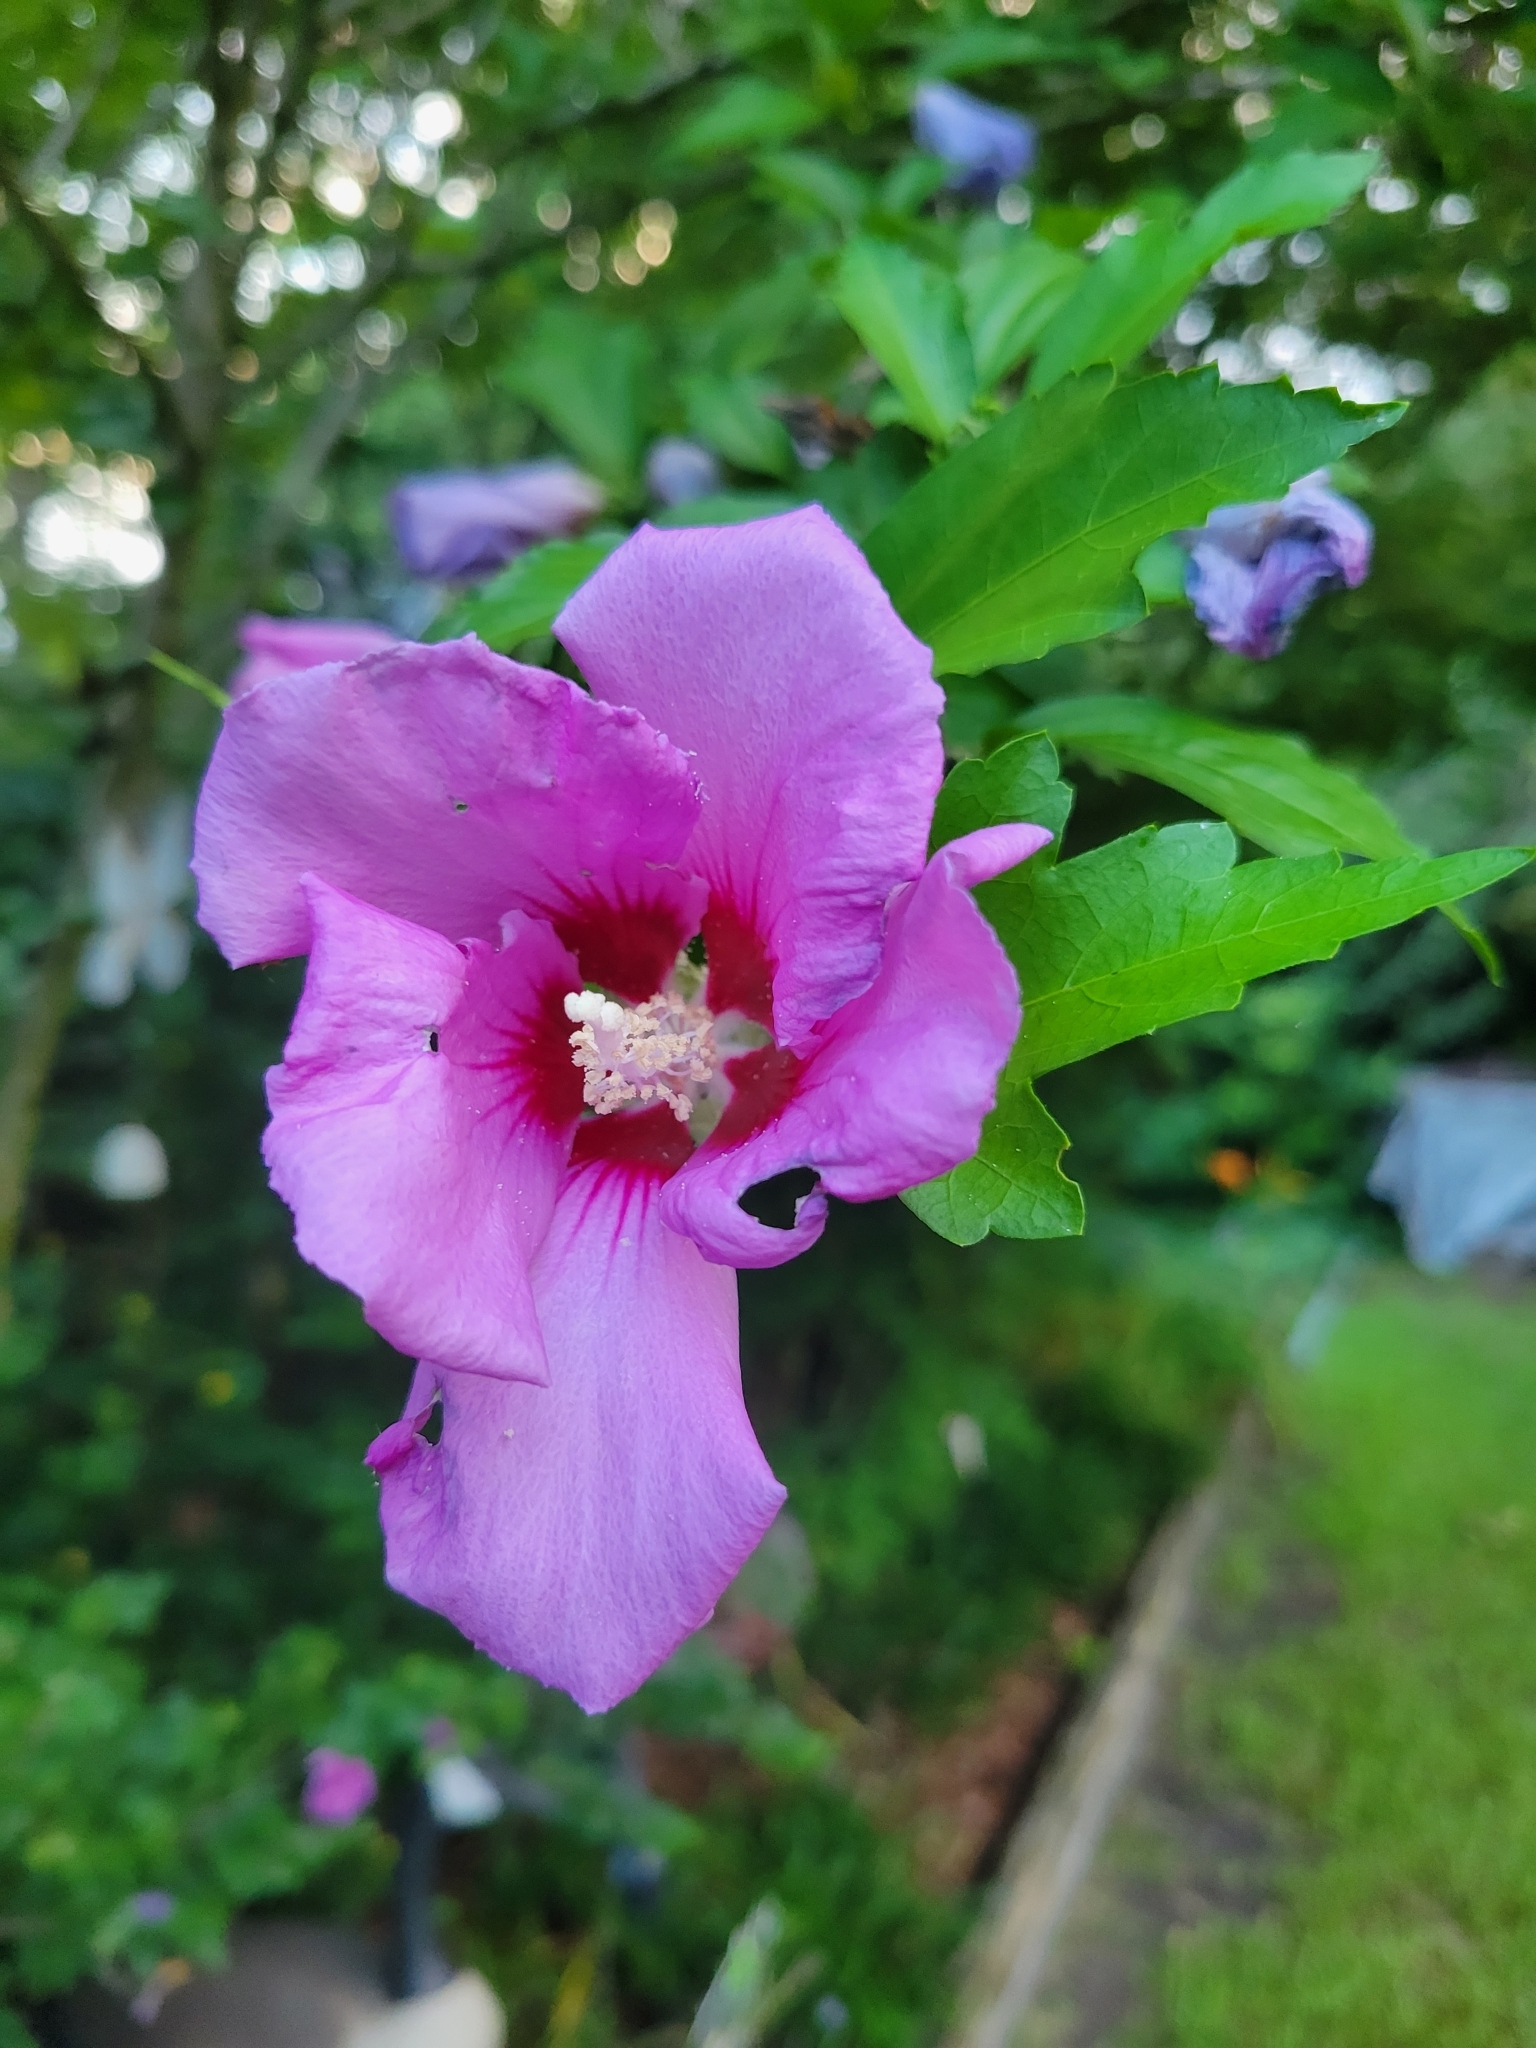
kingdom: Plantae
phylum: Tracheophyta
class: Magnoliopsida
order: Malvales
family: Malvaceae
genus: Hibiscus
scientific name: Hibiscus syriacus
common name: Syrian ketmia
